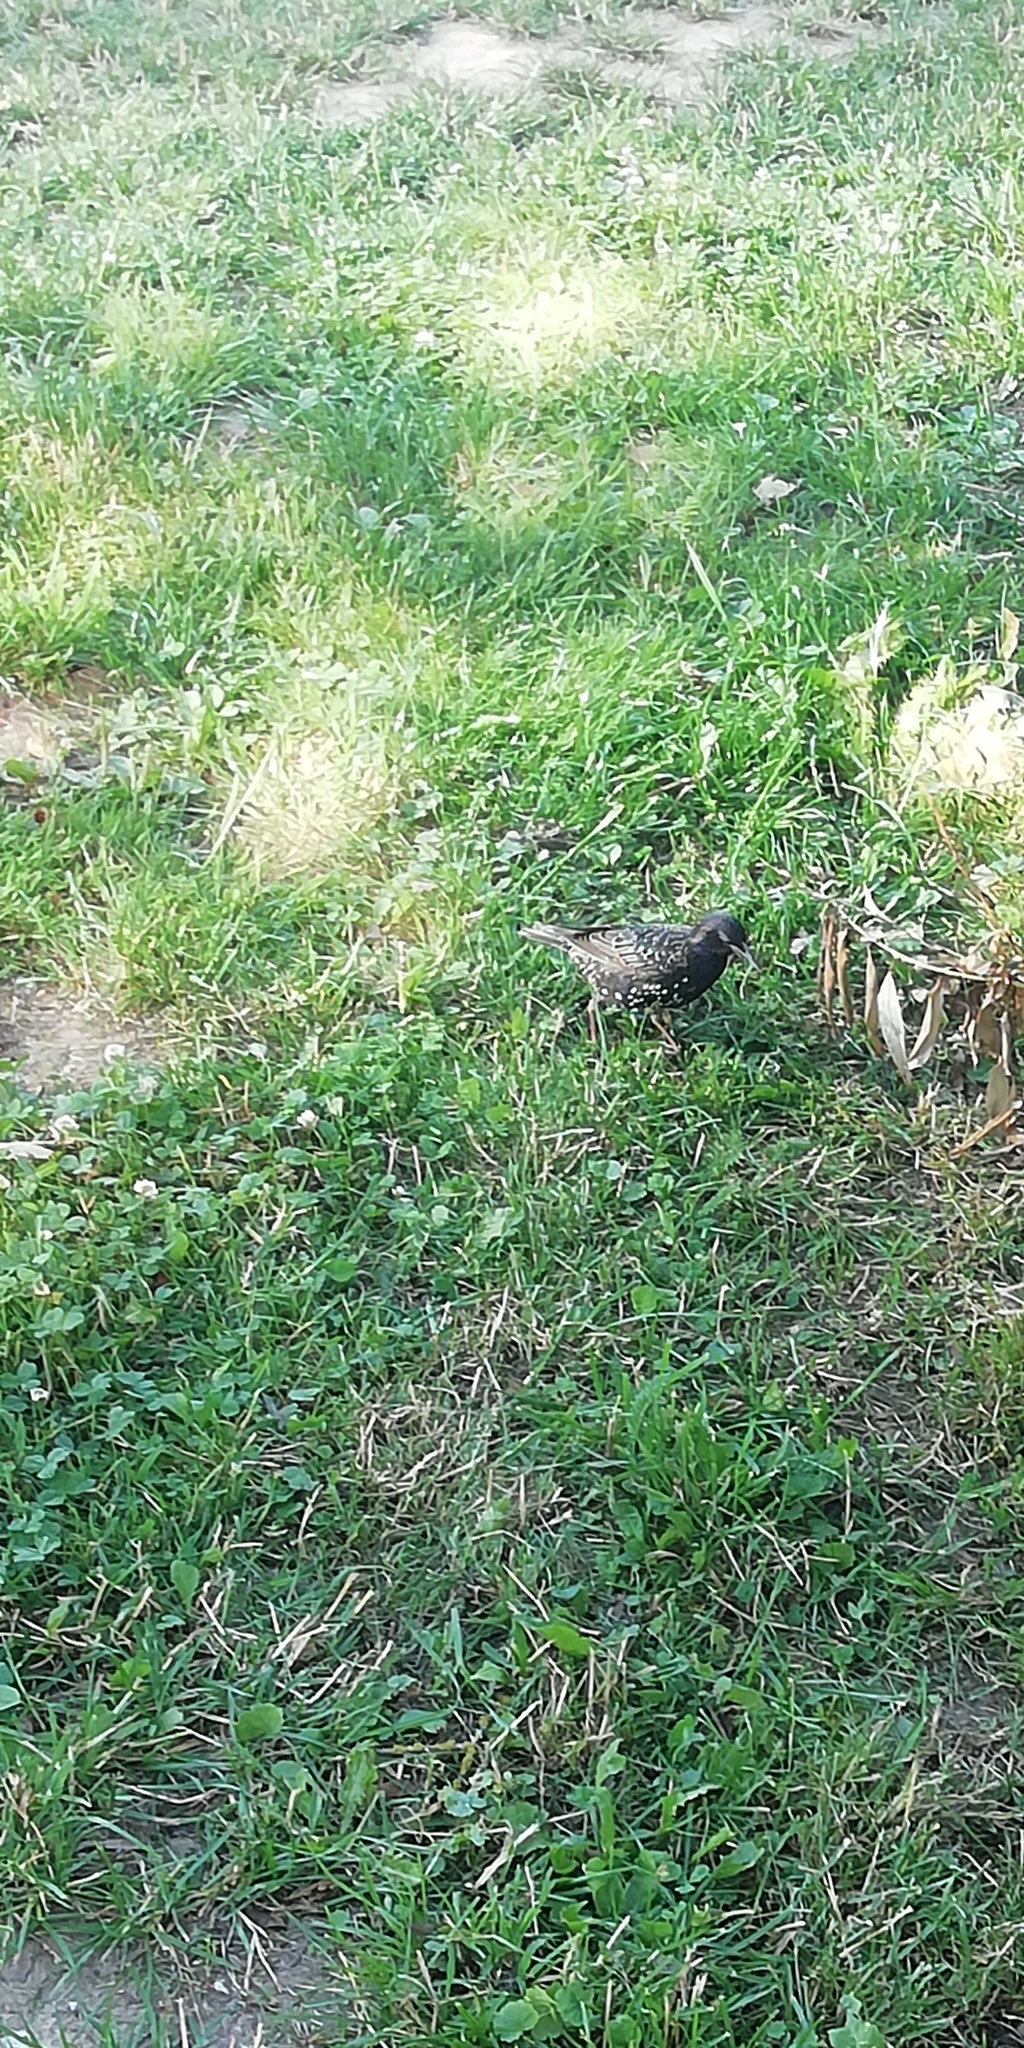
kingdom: Animalia
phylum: Chordata
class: Aves
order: Passeriformes
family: Sturnidae
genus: Sturnus
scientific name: Sturnus vulgaris
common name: Common starling
